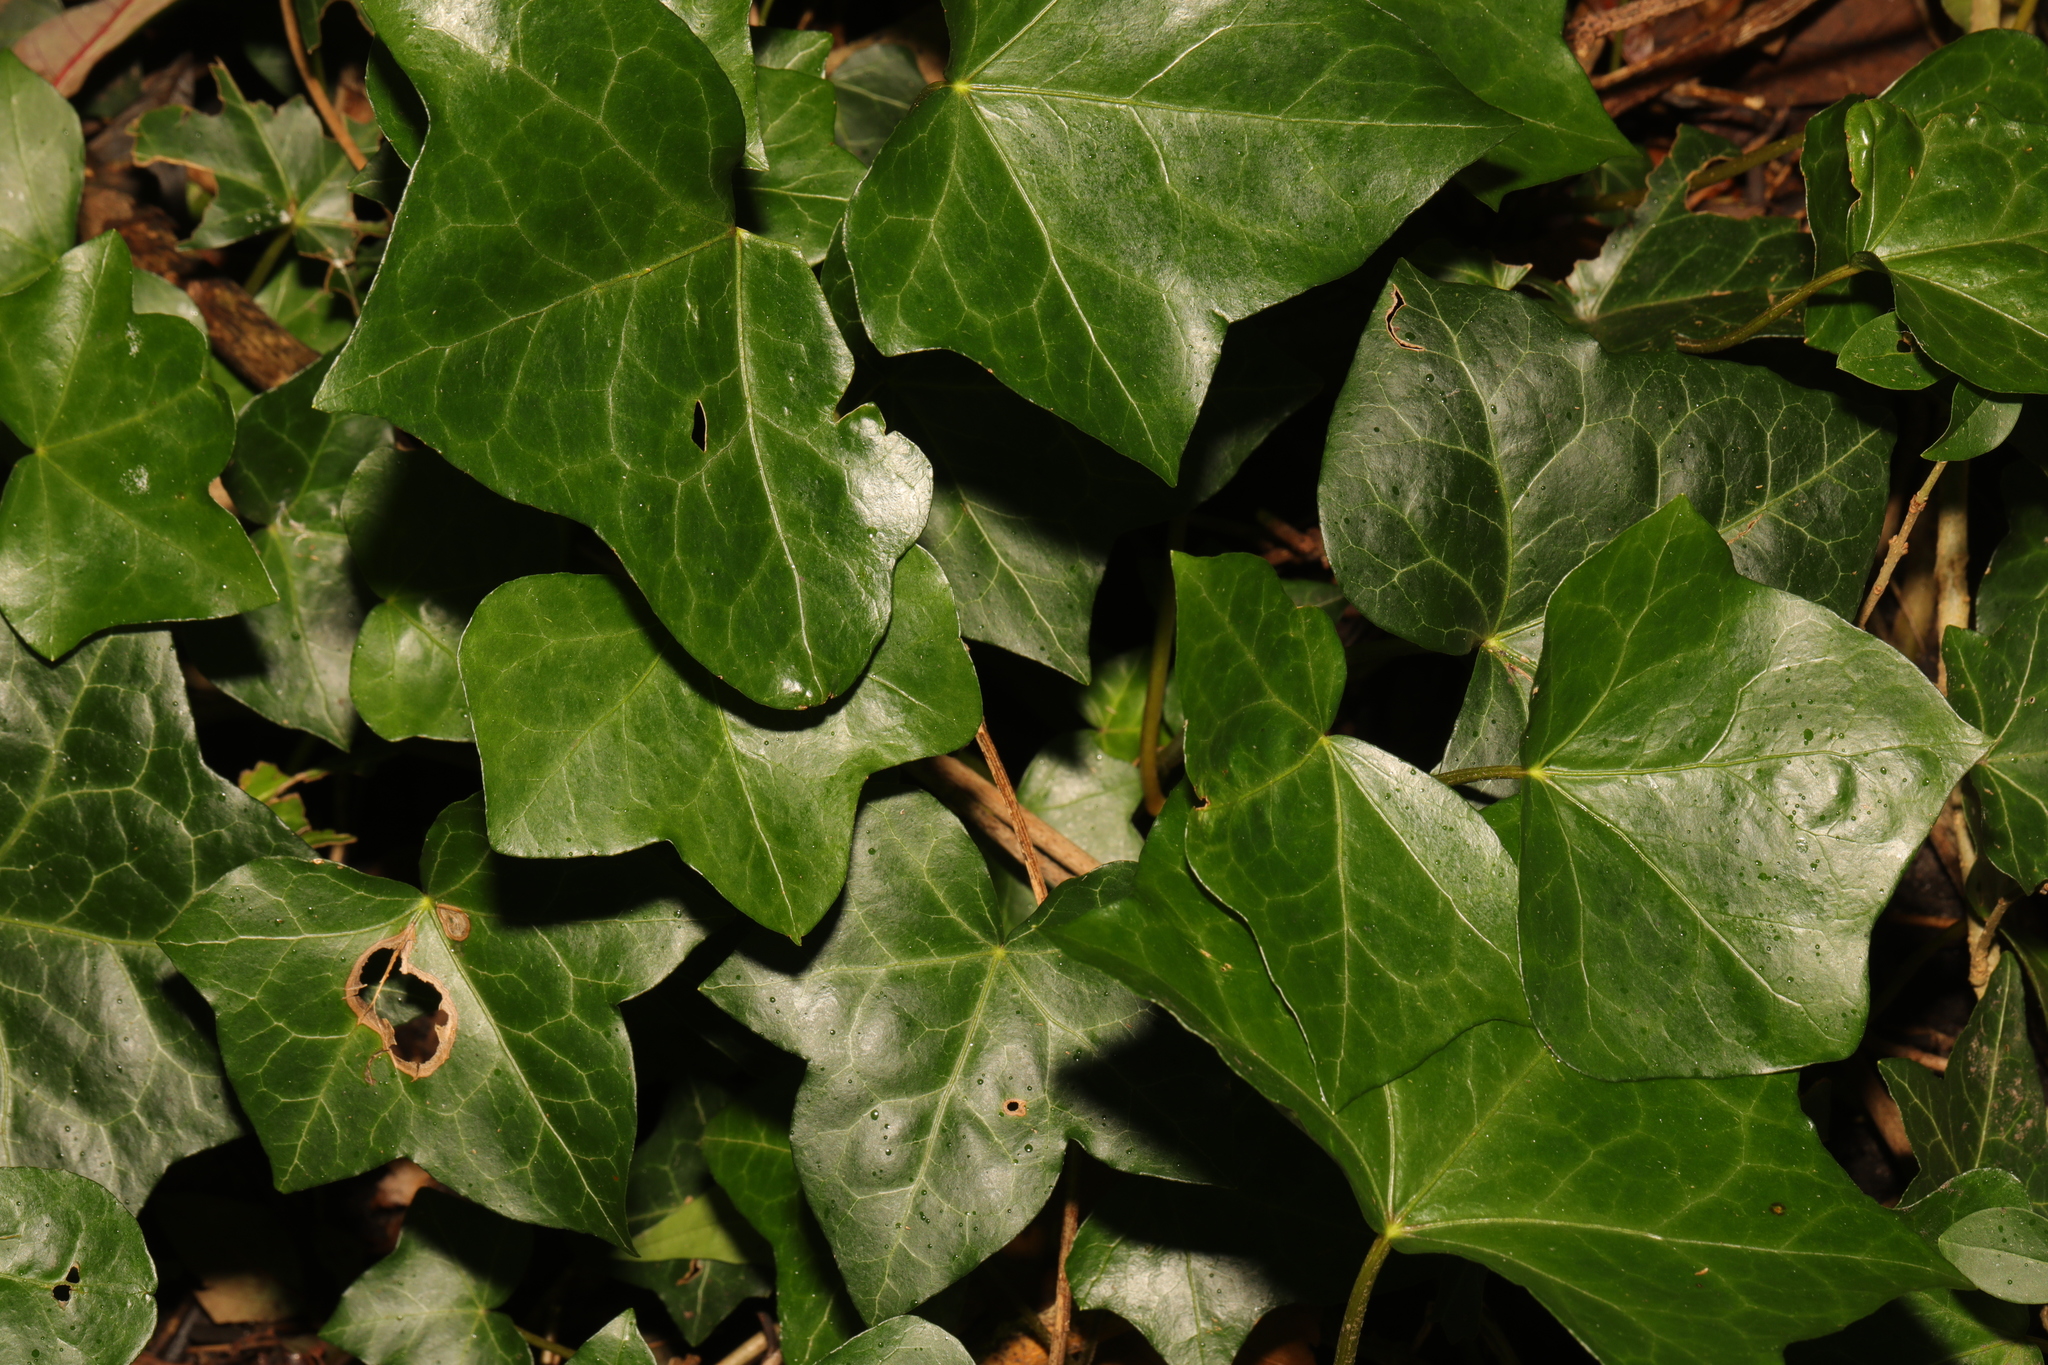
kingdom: Plantae
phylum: Tracheophyta
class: Magnoliopsida
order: Apiales
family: Araliaceae
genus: Hedera
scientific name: Hedera helix
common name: Ivy
